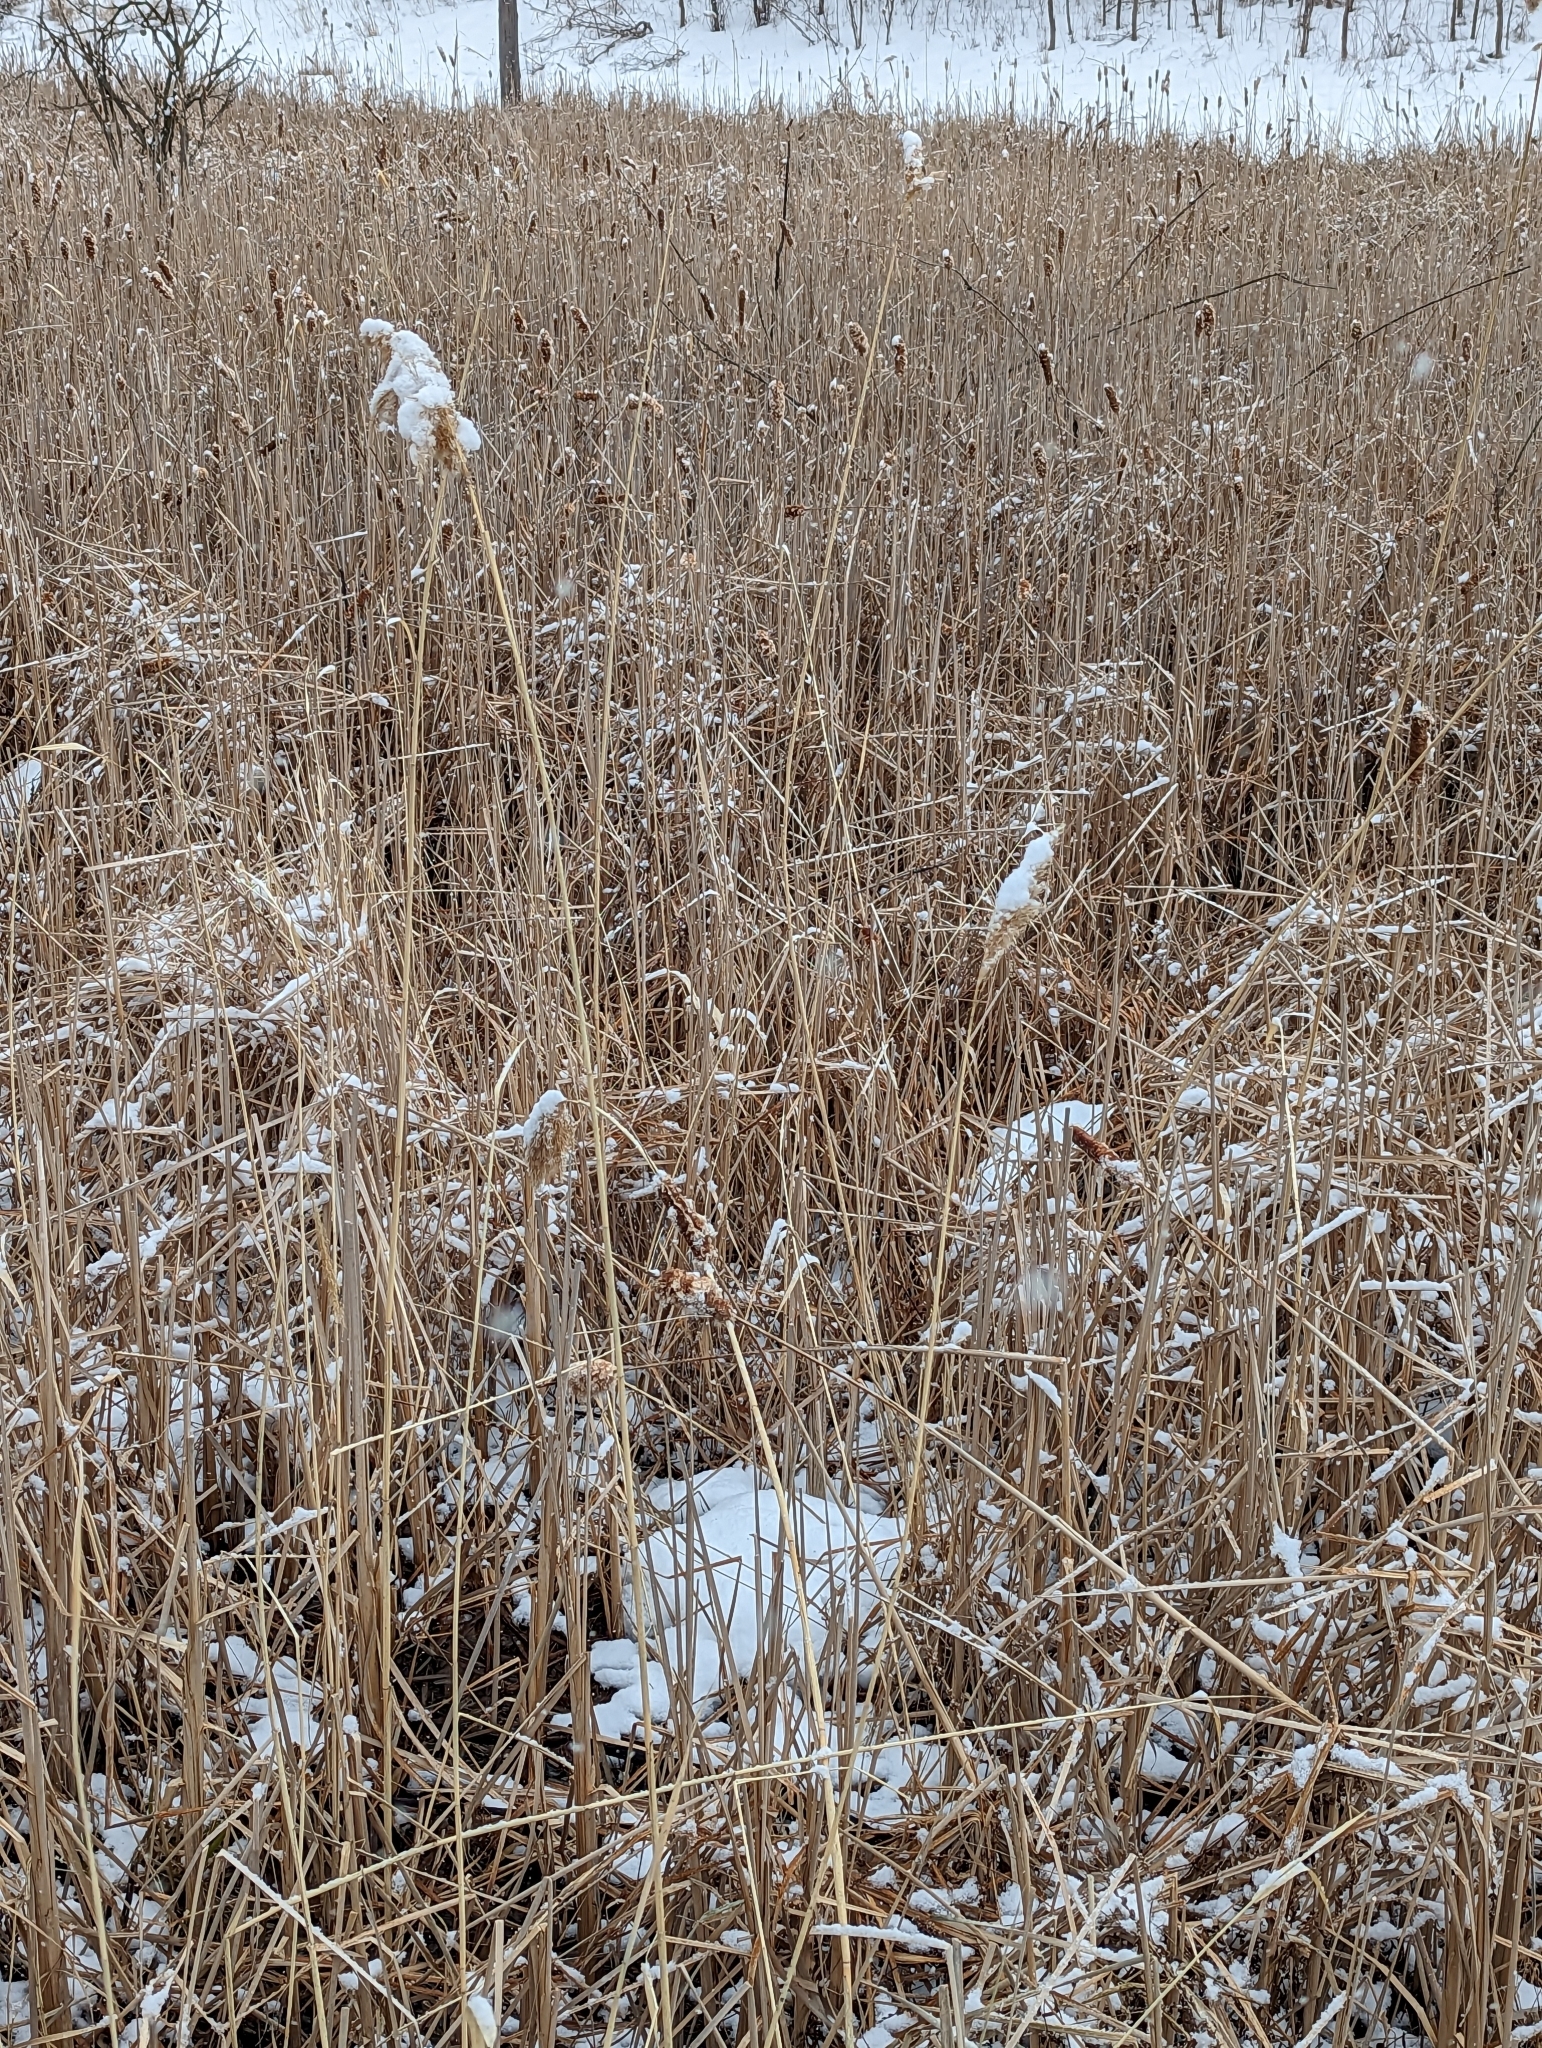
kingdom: Plantae
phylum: Tracheophyta
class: Liliopsida
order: Poales
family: Poaceae
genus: Phragmites
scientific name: Phragmites australis
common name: Common reed
